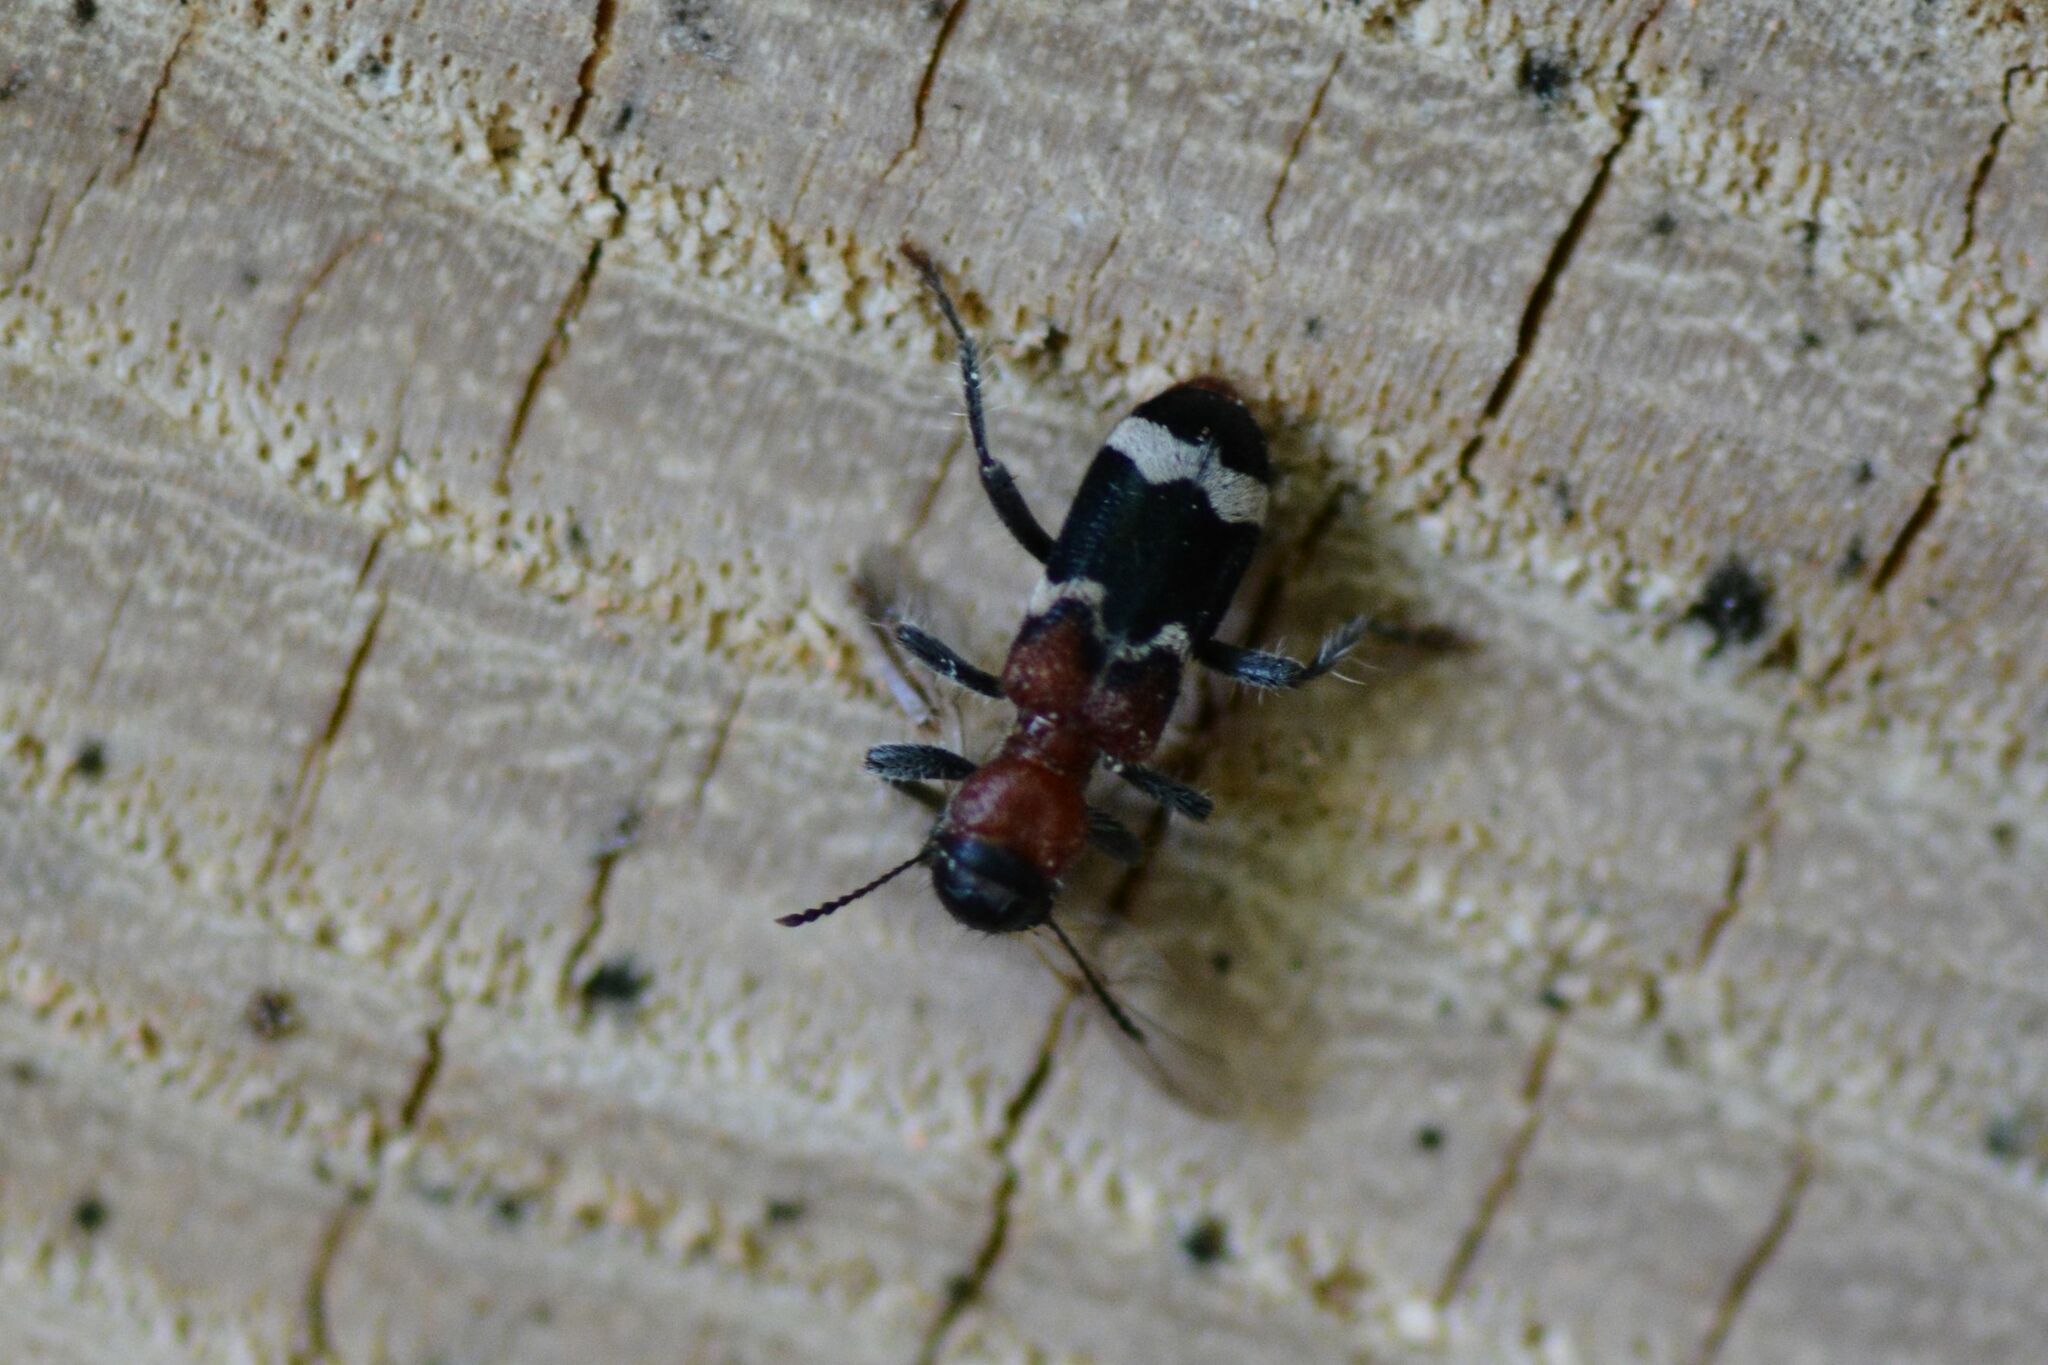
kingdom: Animalia
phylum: Arthropoda
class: Insecta
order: Coleoptera
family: Cleridae
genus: Thanasimus
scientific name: Thanasimus formicarius
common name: Ant beetle
